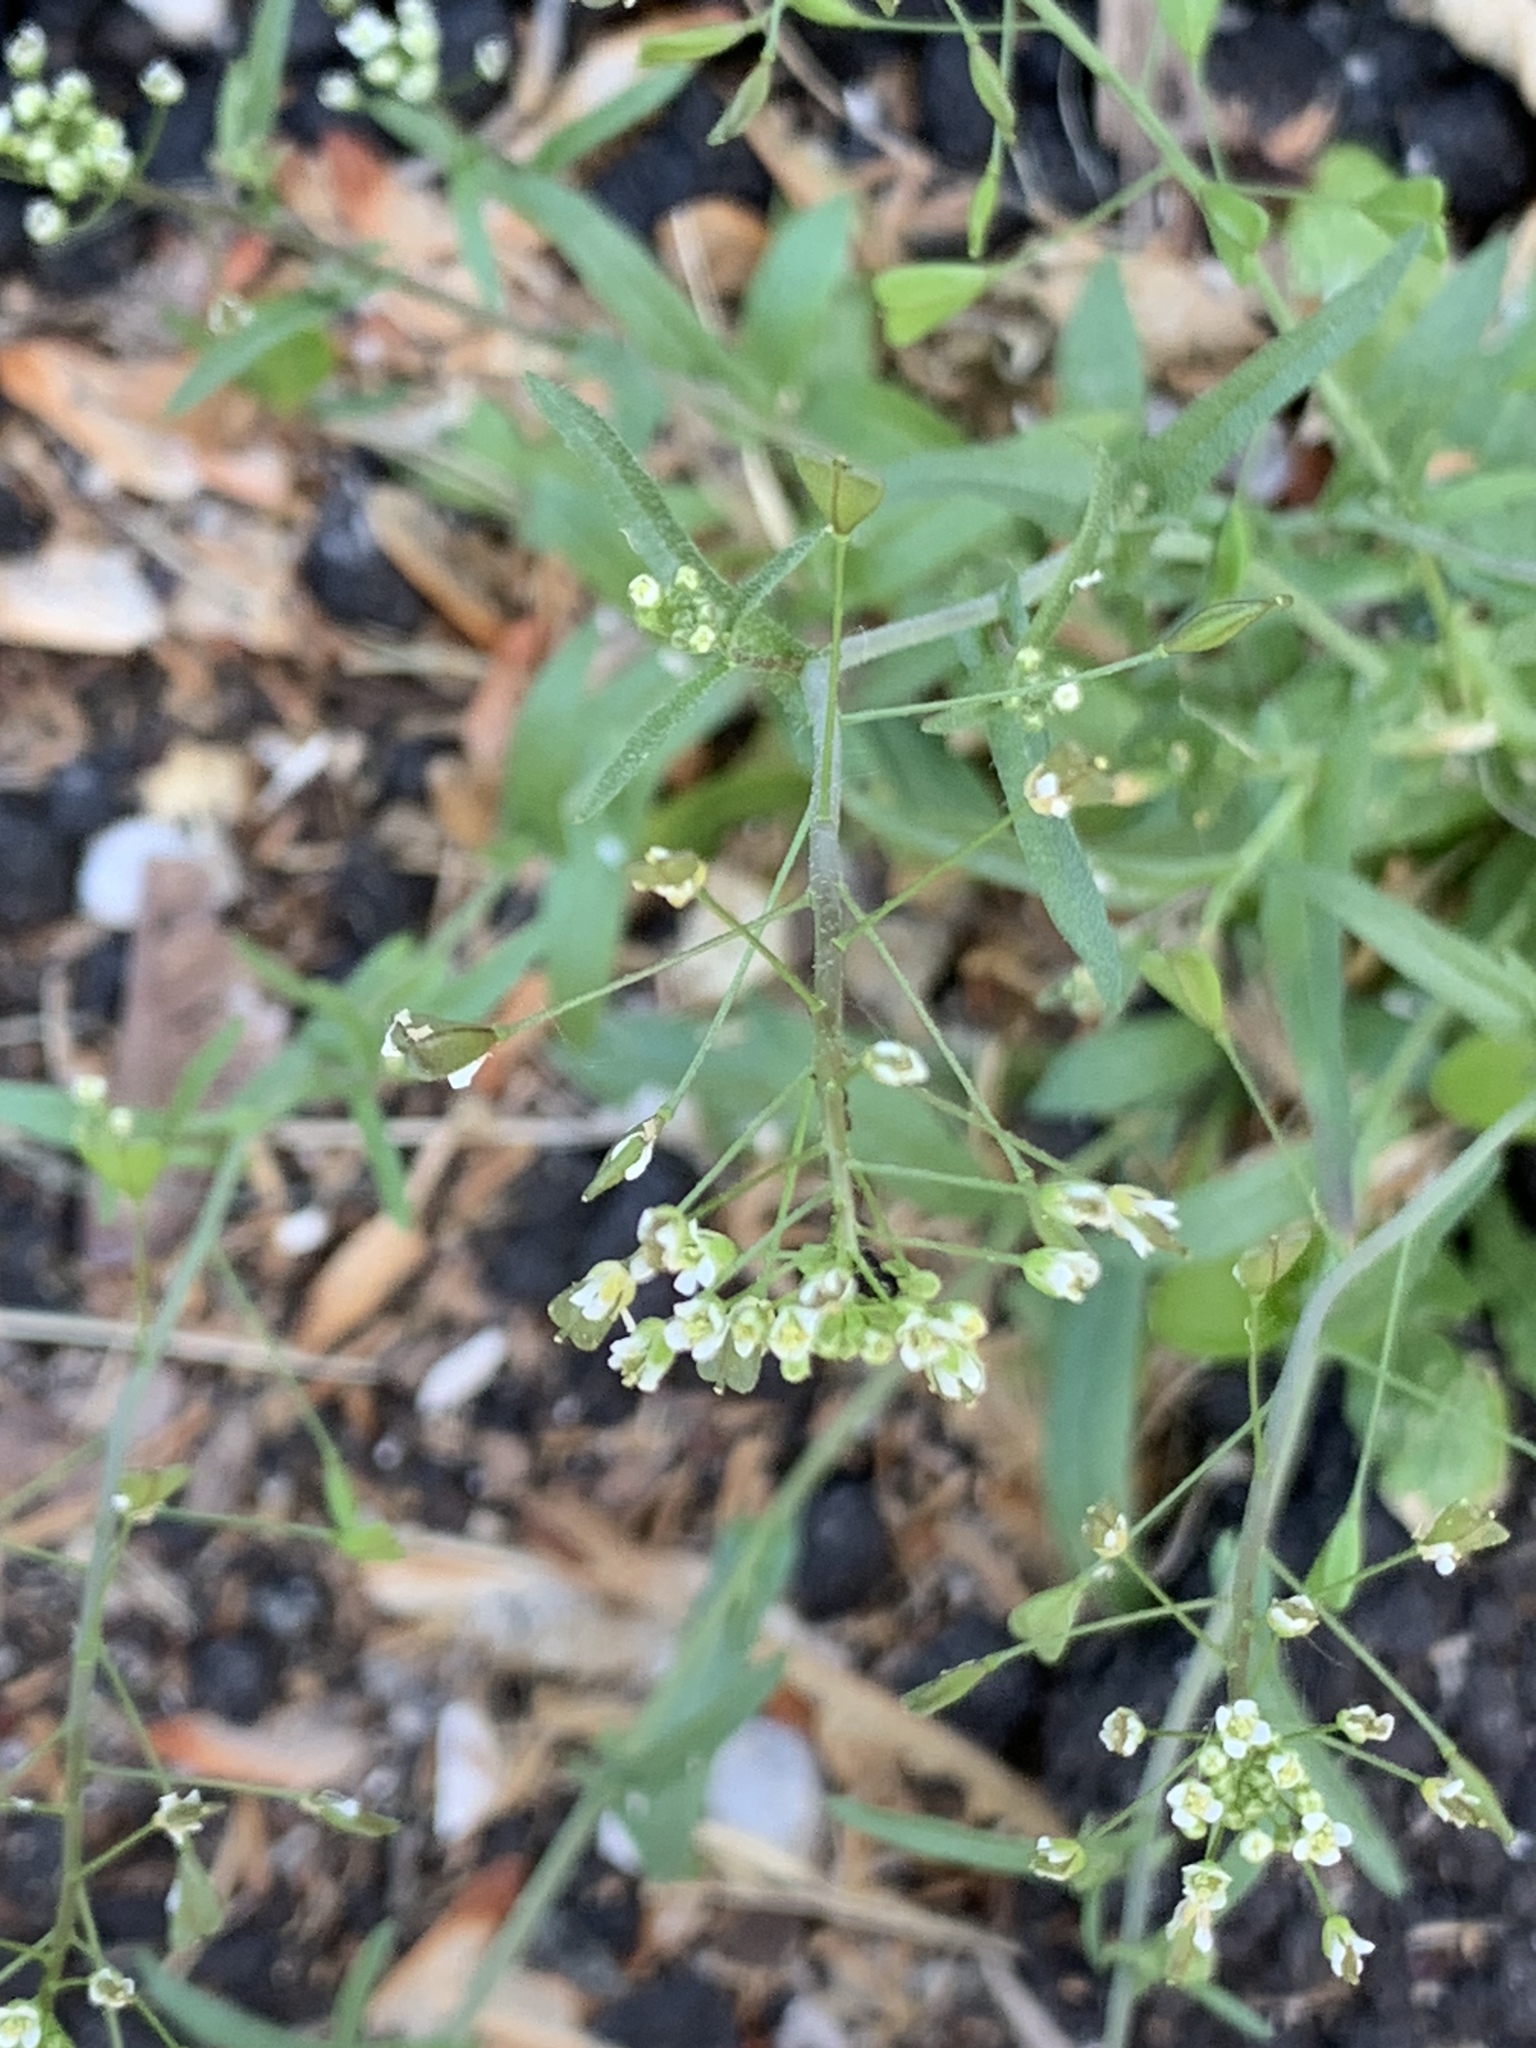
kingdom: Plantae
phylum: Tracheophyta
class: Magnoliopsida
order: Brassicales
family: Brassicaceae
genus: Capsella
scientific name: Capsella bursa-pastoris
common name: Shepherd's purse
